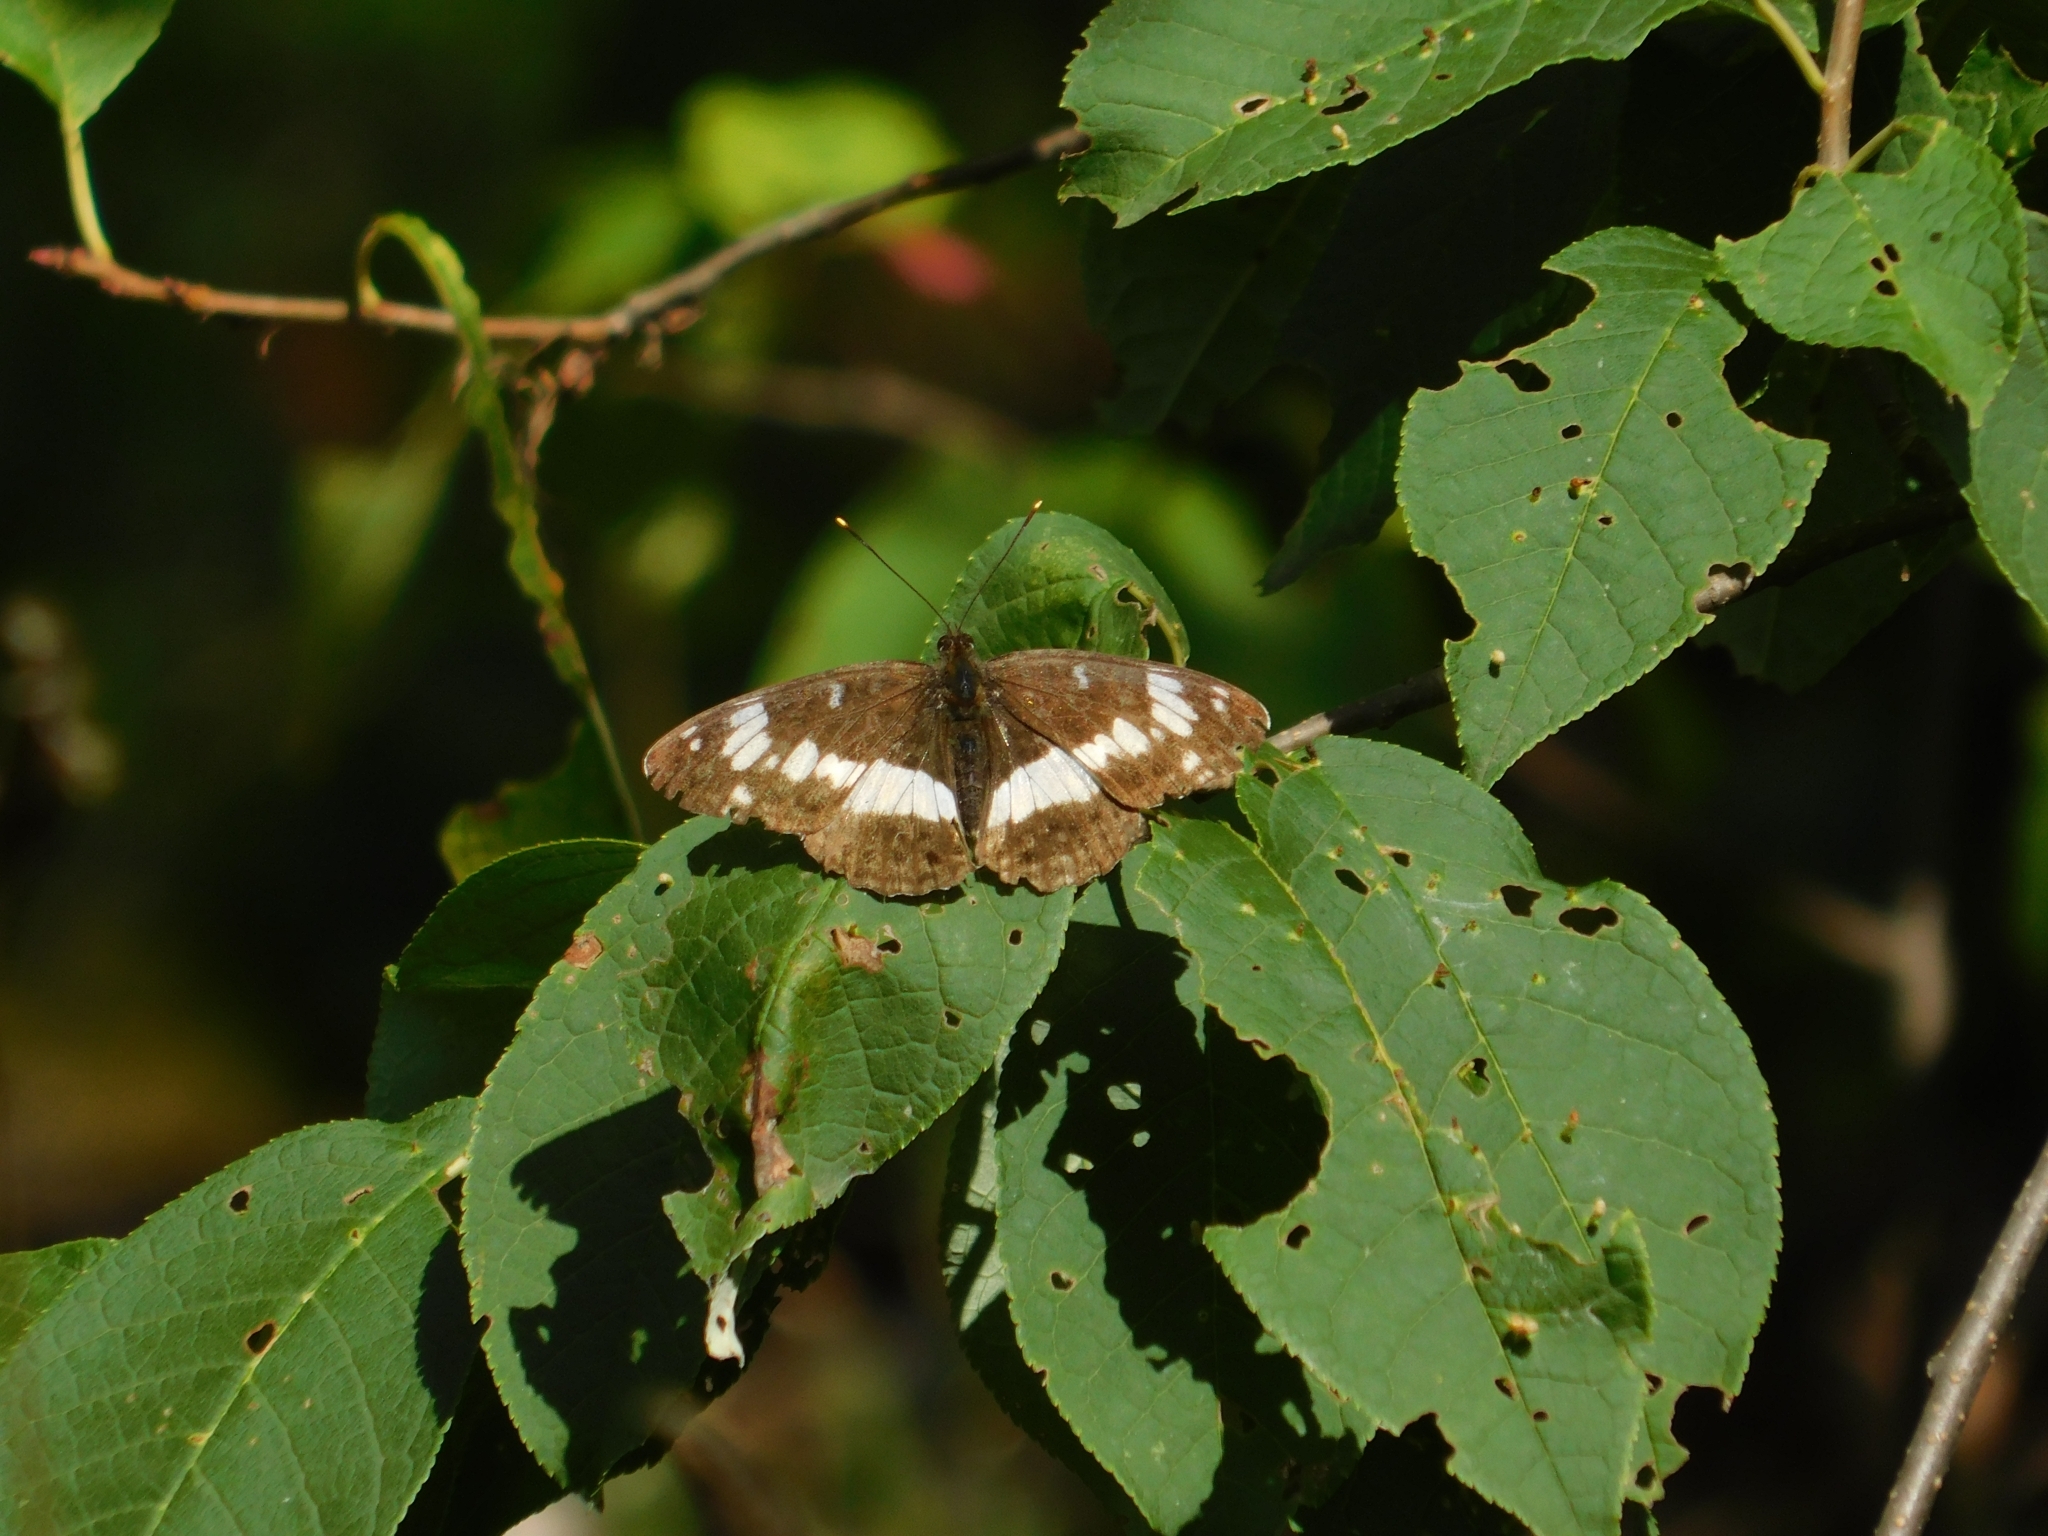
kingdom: Animalia
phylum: Arthropoda
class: Insecta
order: Lepidoptera
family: Nymphalidae
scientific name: Nymphalidae
